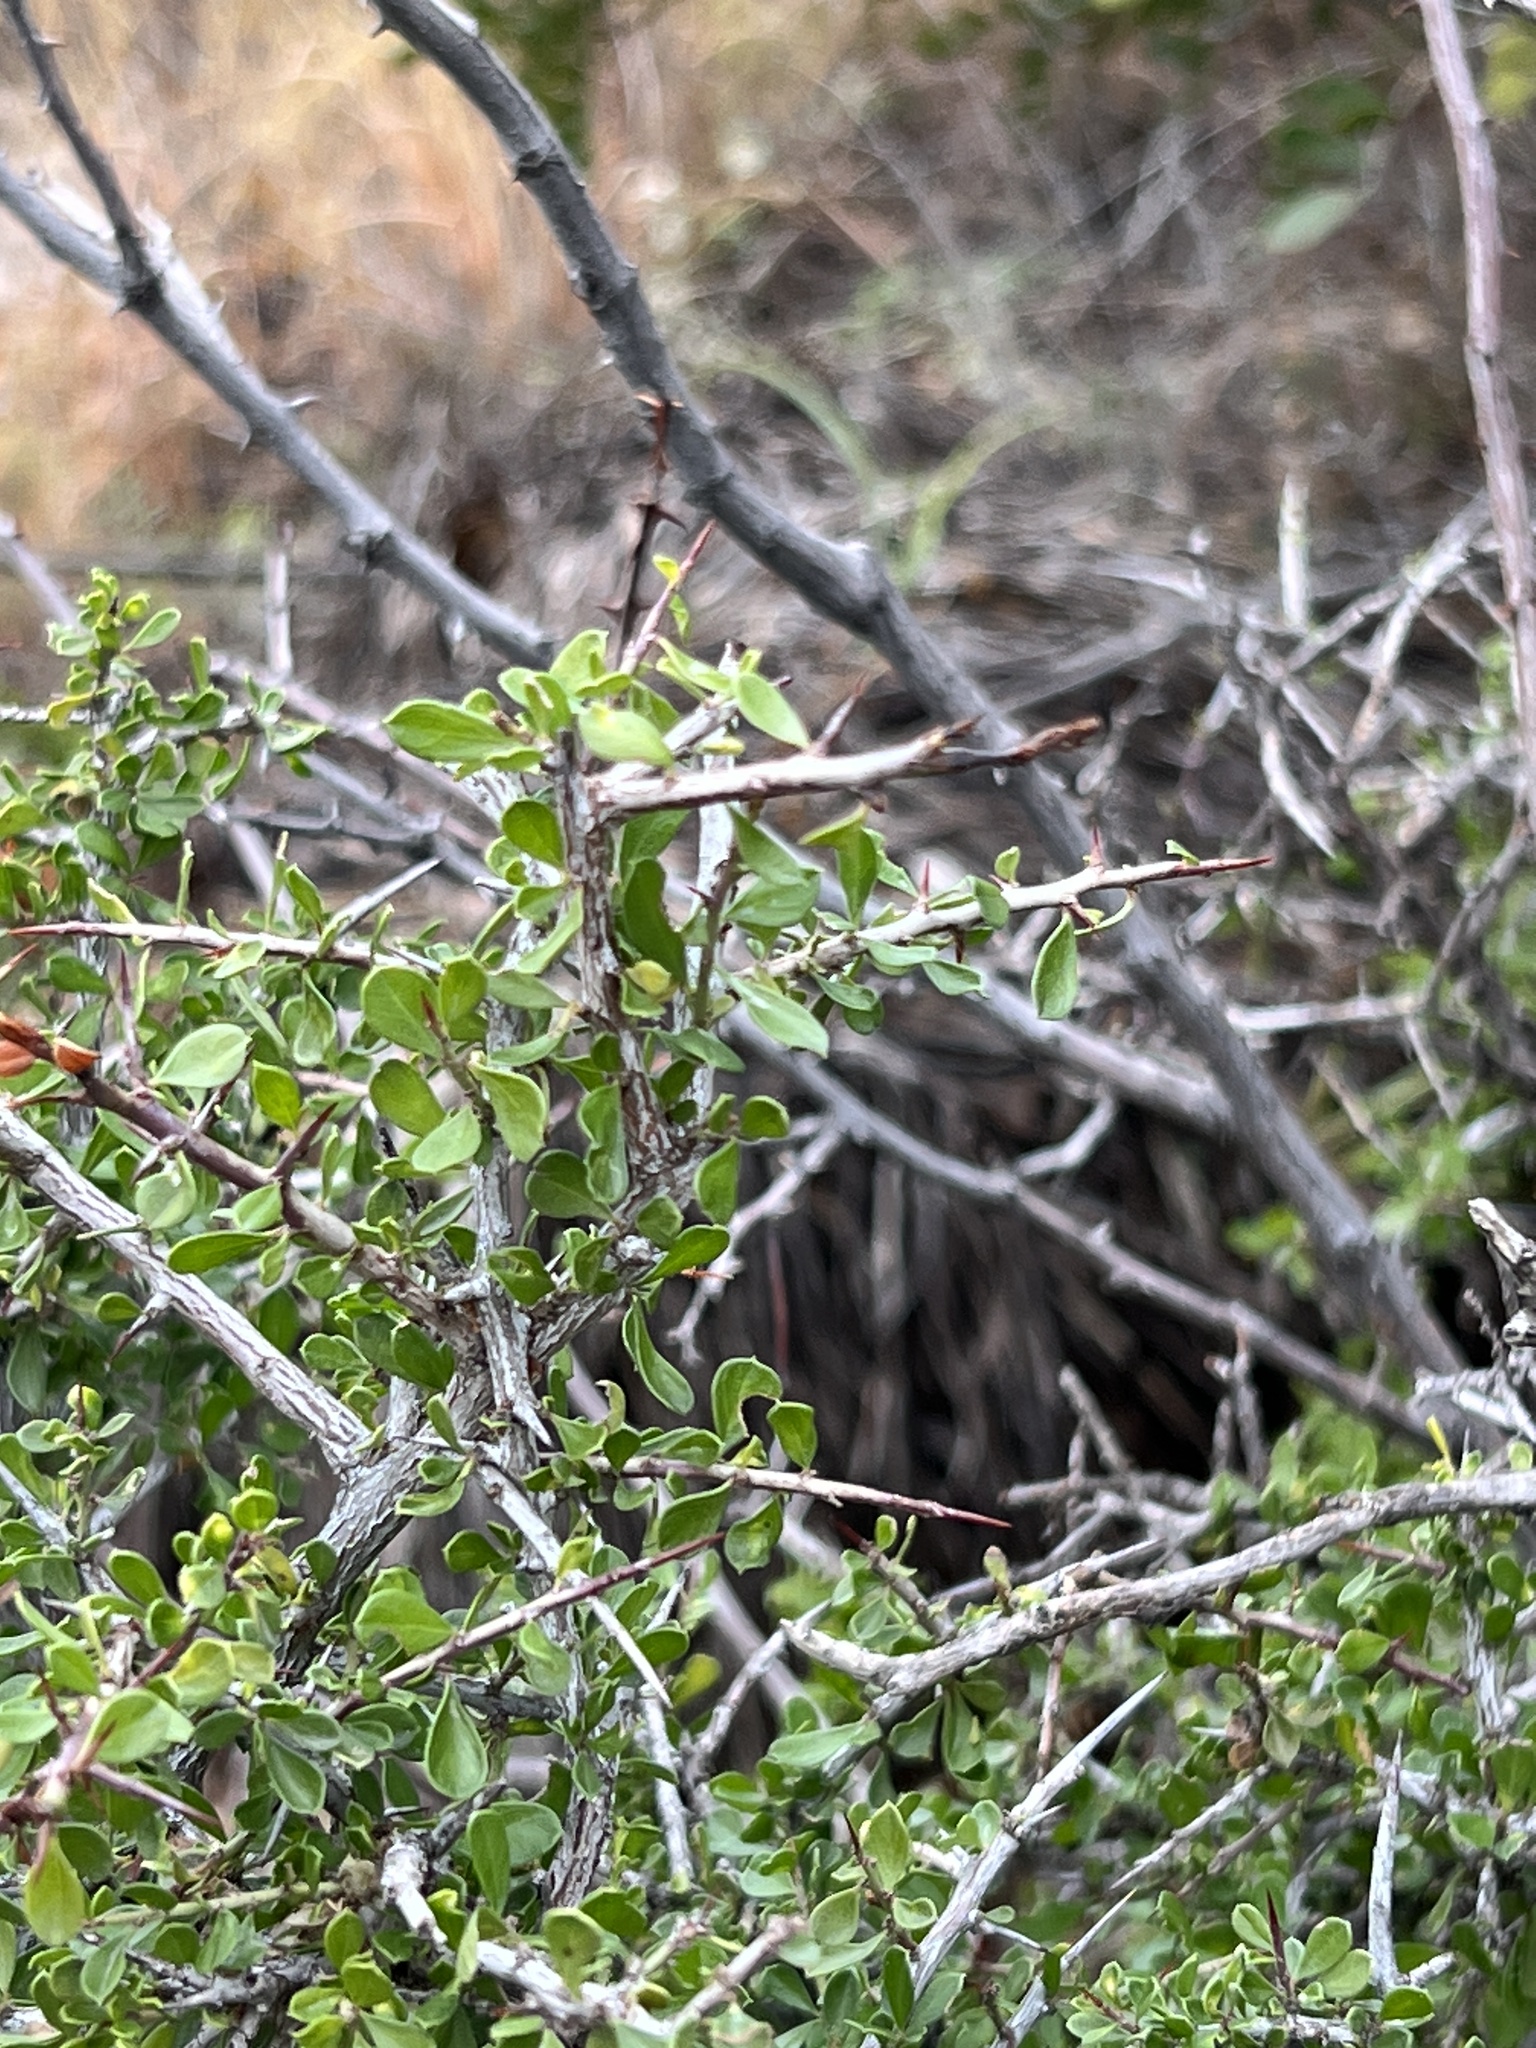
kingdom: Plantae
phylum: Tracheophyta
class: Magnoliopsida
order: Rosales
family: Rhamnaceae
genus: Condalia
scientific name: Condalia viridis
